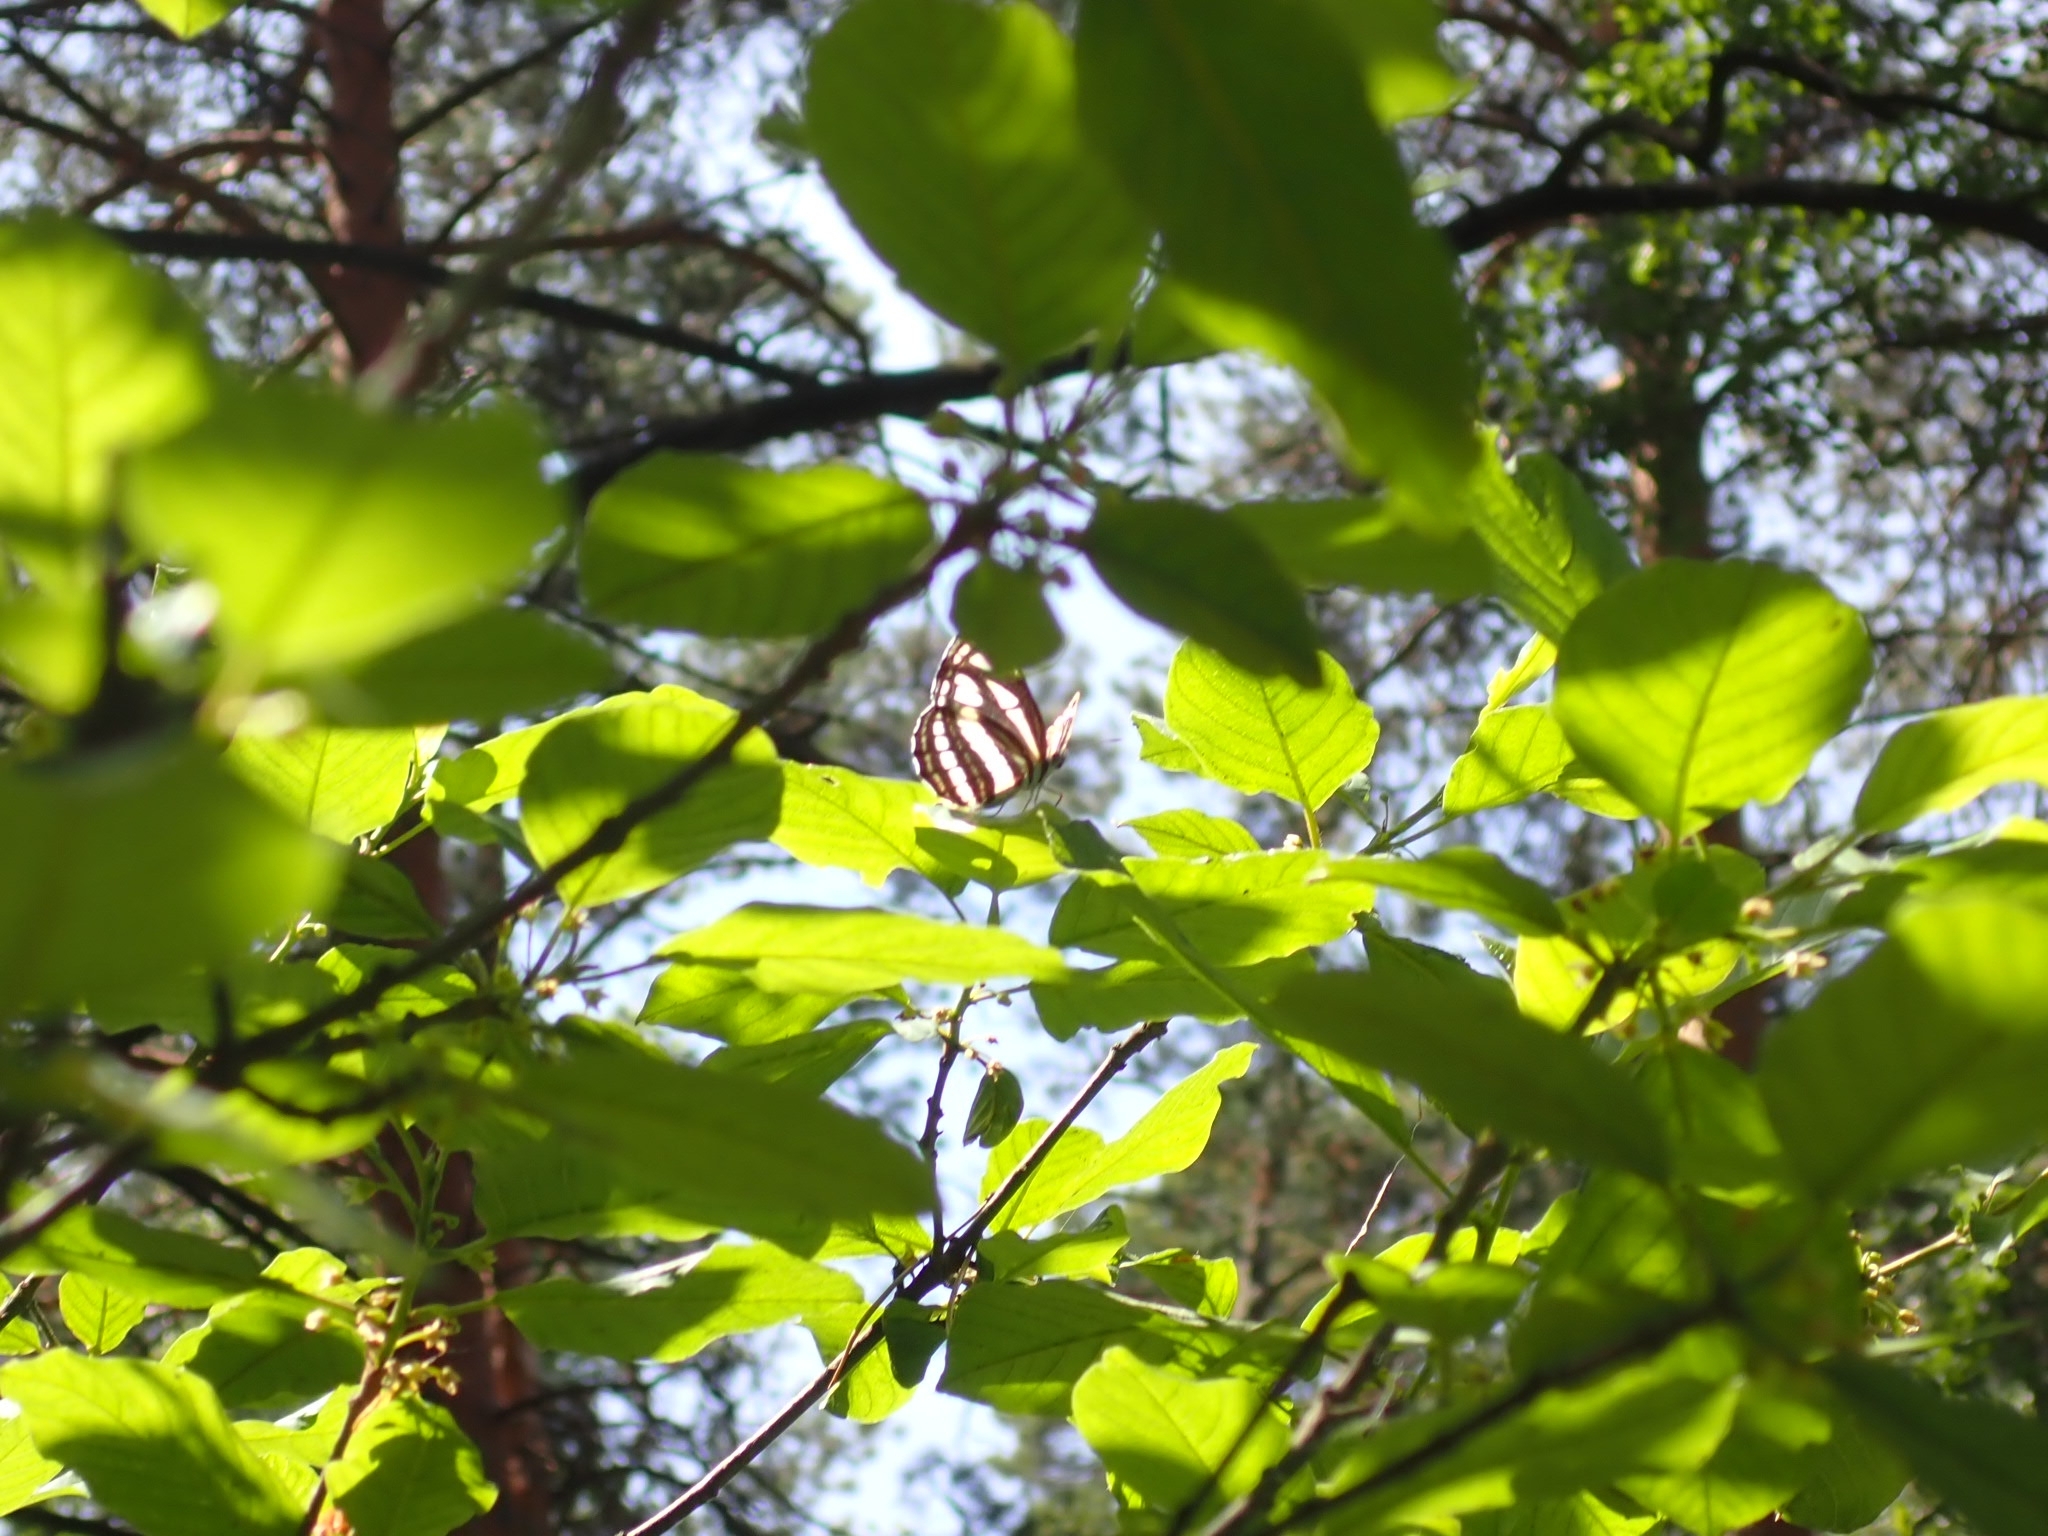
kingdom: Animalia
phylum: Arthropoda
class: Insecta
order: Lepidoptera
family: Nymphalidae
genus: Neptis
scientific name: Neptis sappho
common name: Common glider
